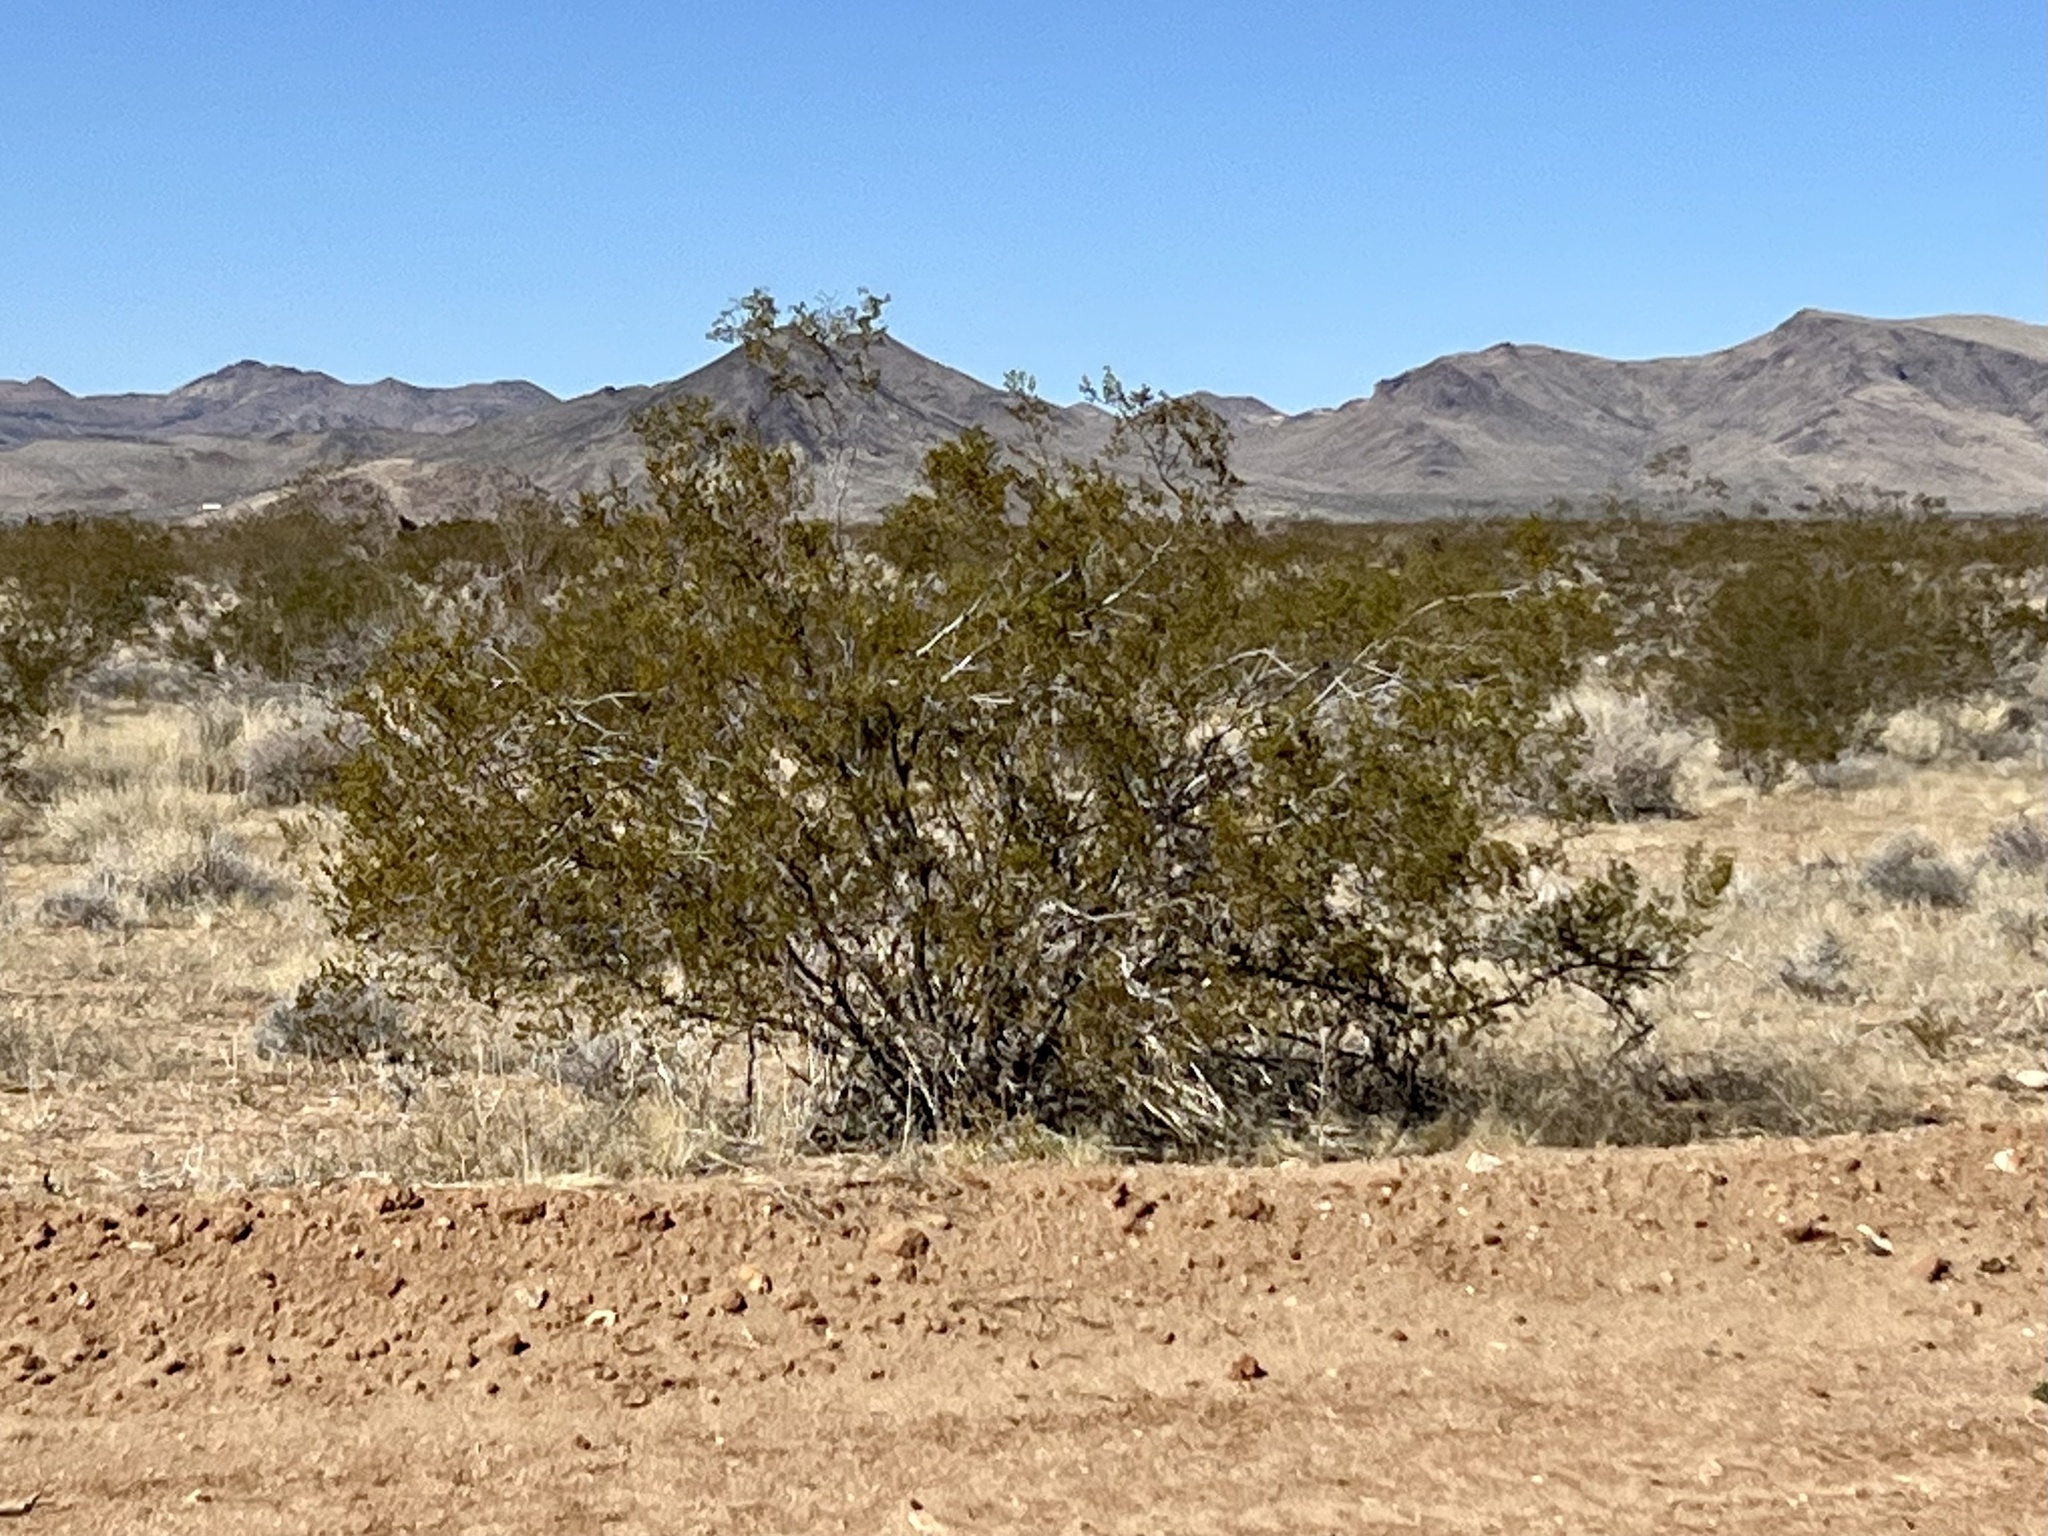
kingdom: Plantae
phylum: Tracheophyta
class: Magnoliopsida
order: Zygophyllales
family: Zygophyllaceae
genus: Larrea
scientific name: Larrea tridentata
